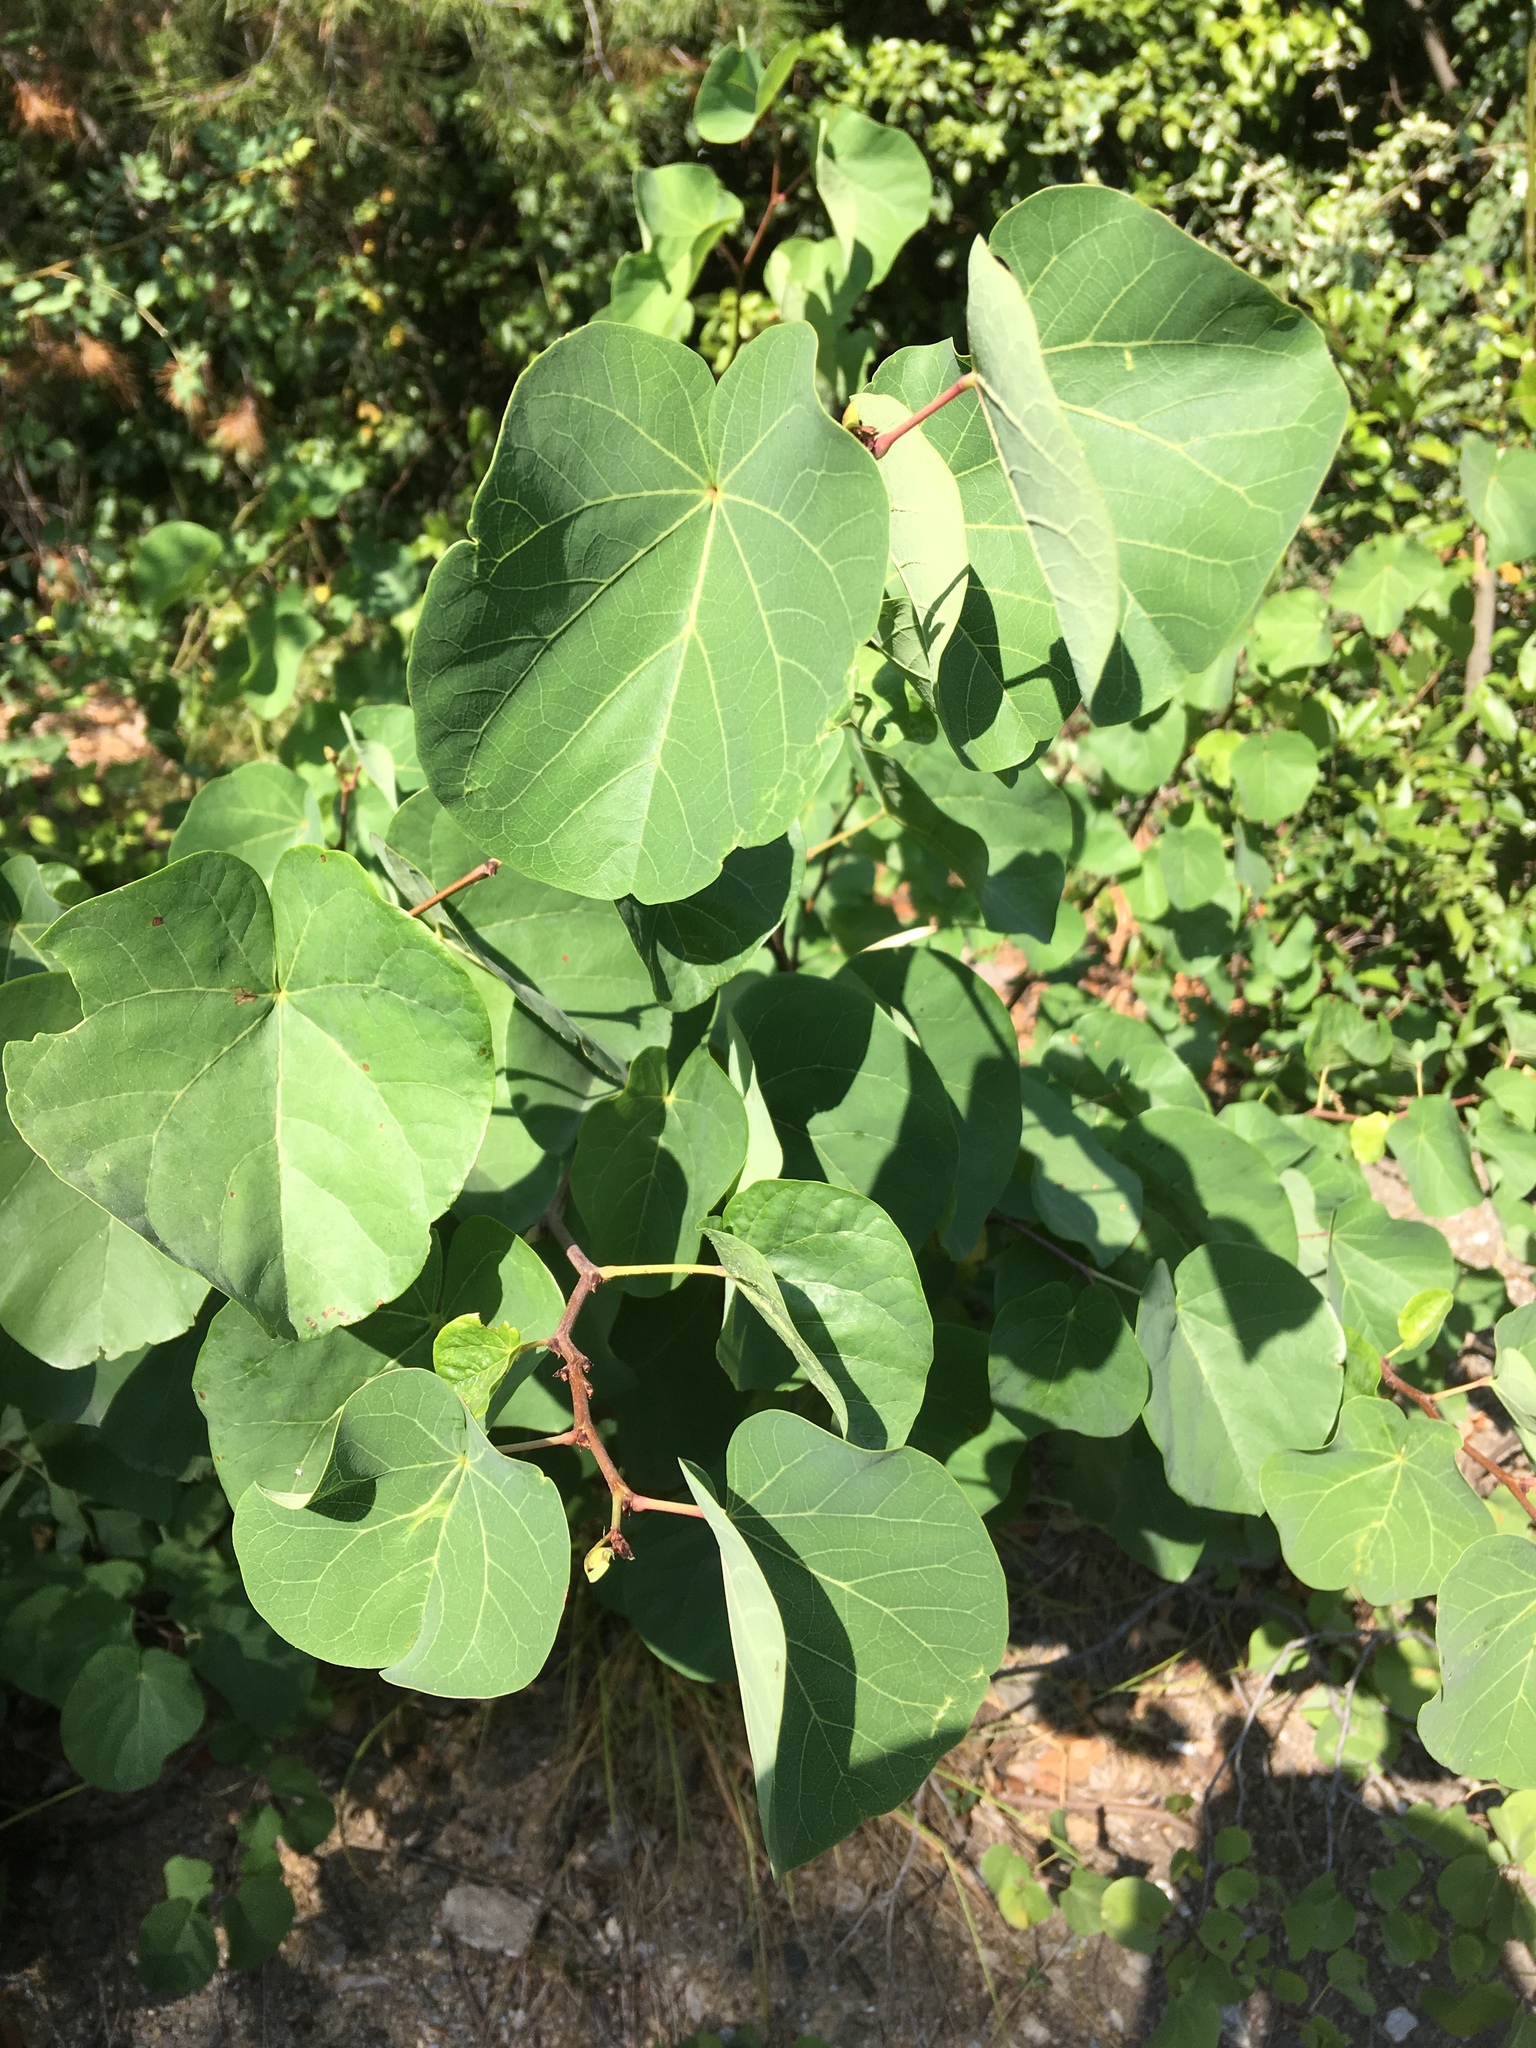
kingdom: Plantae
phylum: Tracheophyta
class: Magnoliopsida
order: Fabales
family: Fabaceae
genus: Cercis
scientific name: Cercis siliquastrum
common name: Judas tree
